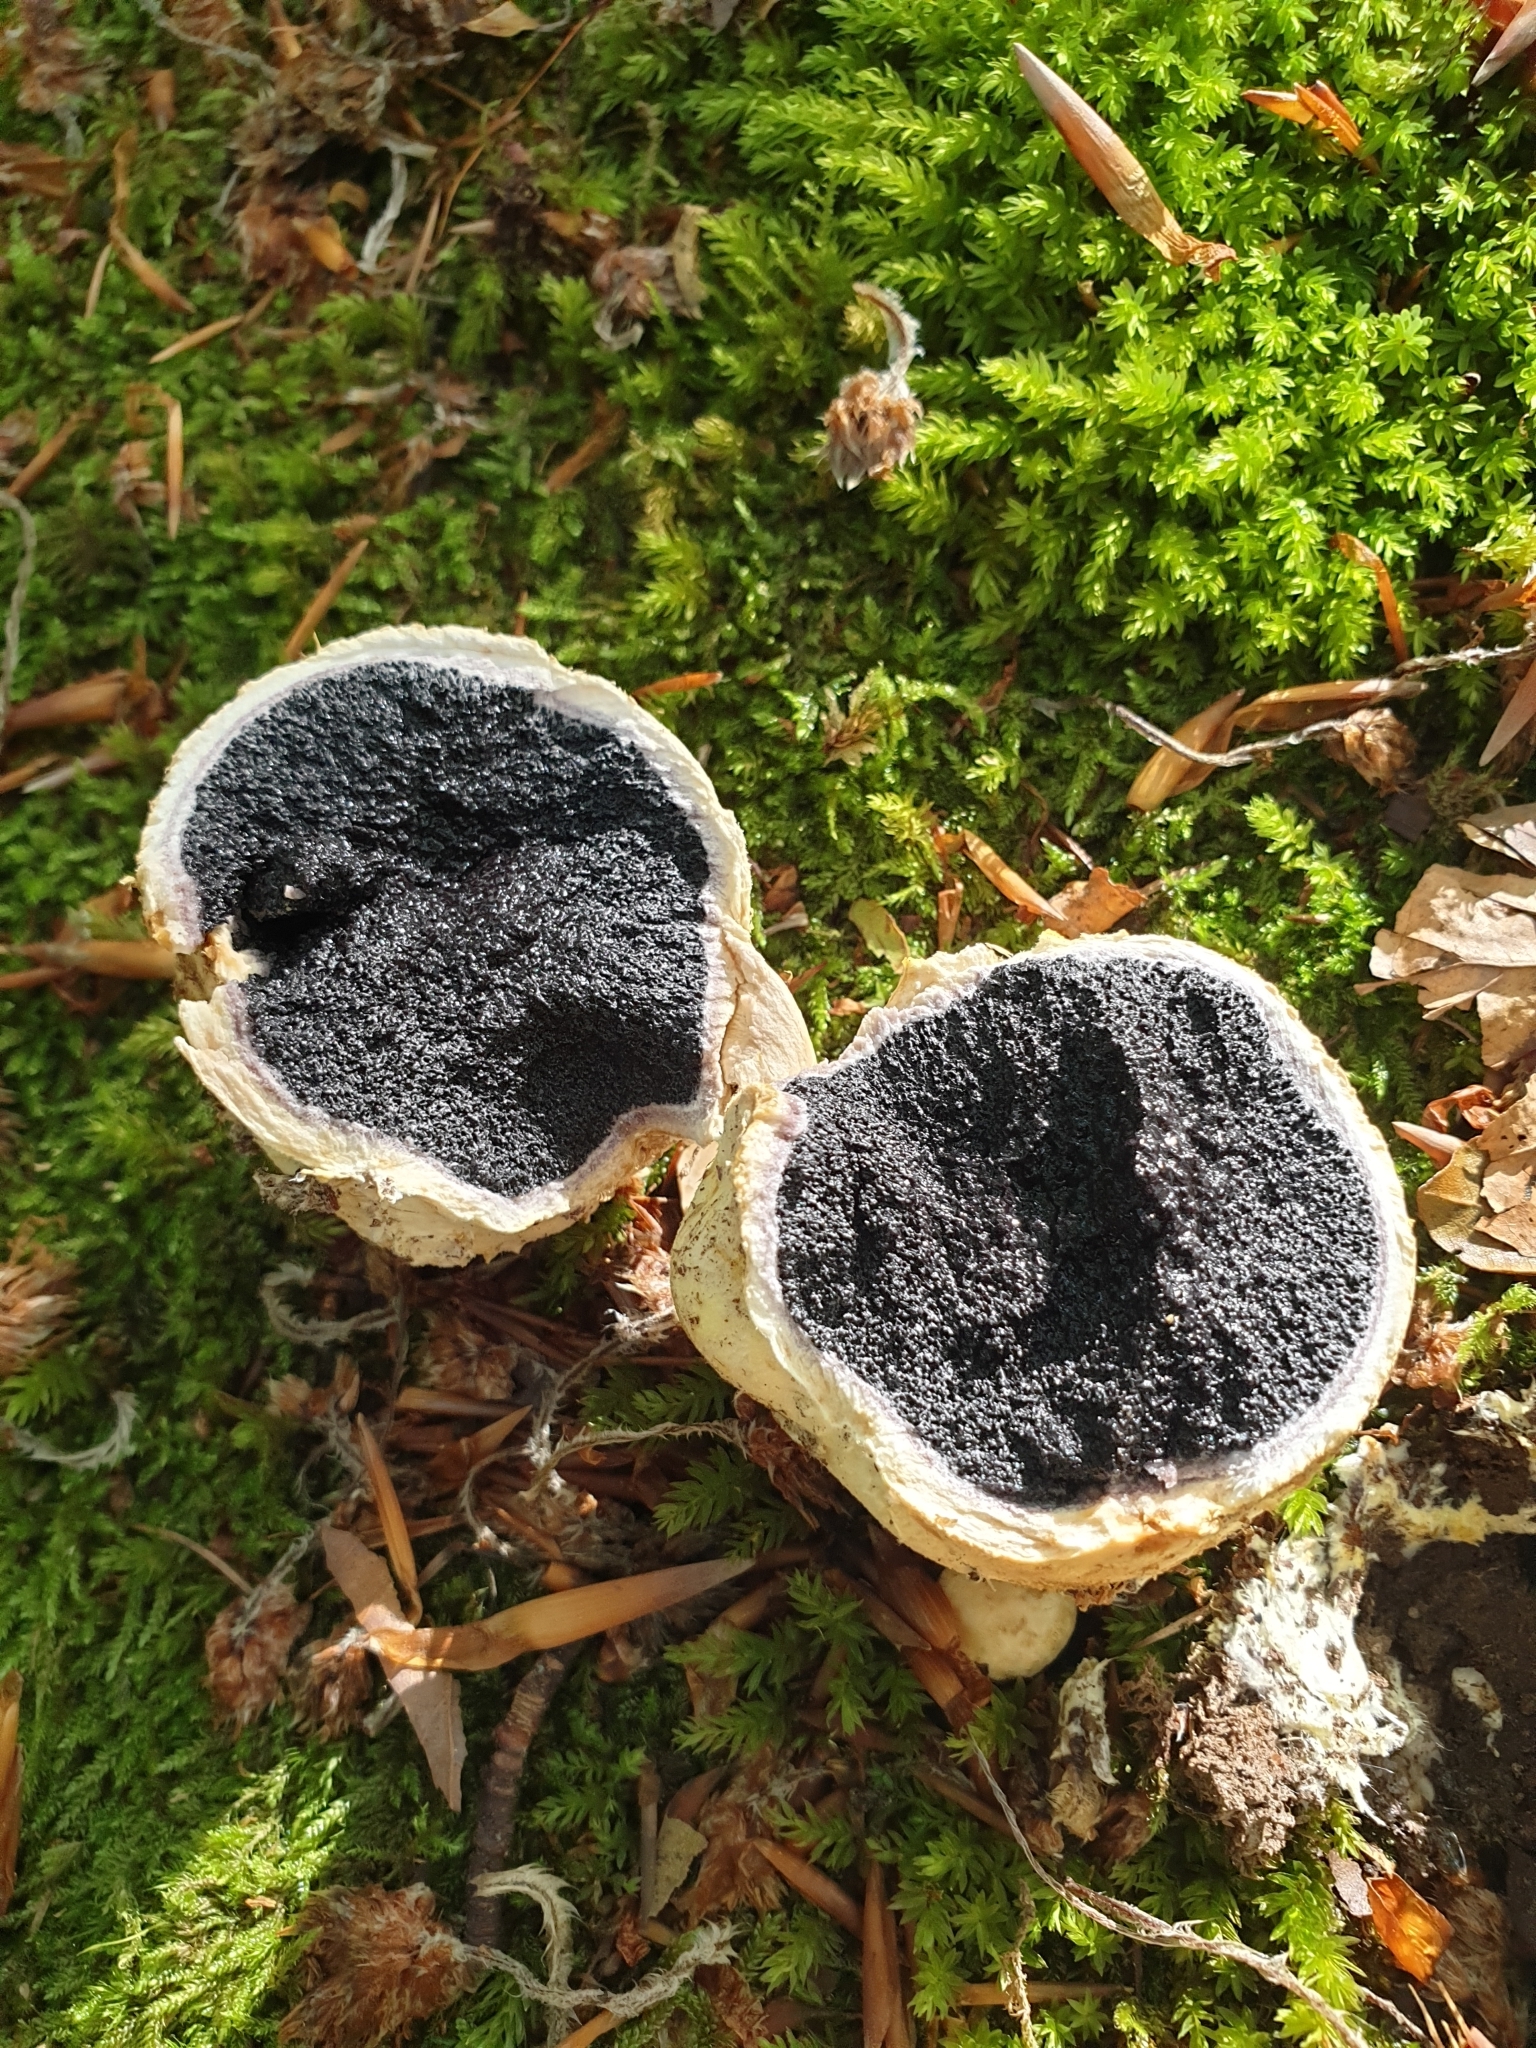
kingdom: Fungi
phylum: Basidiomycota
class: Agaricomycetes
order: Boletales
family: Sclerodermataceae
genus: Scleroderma
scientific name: Scleroderma citrinum
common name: Common earthball
